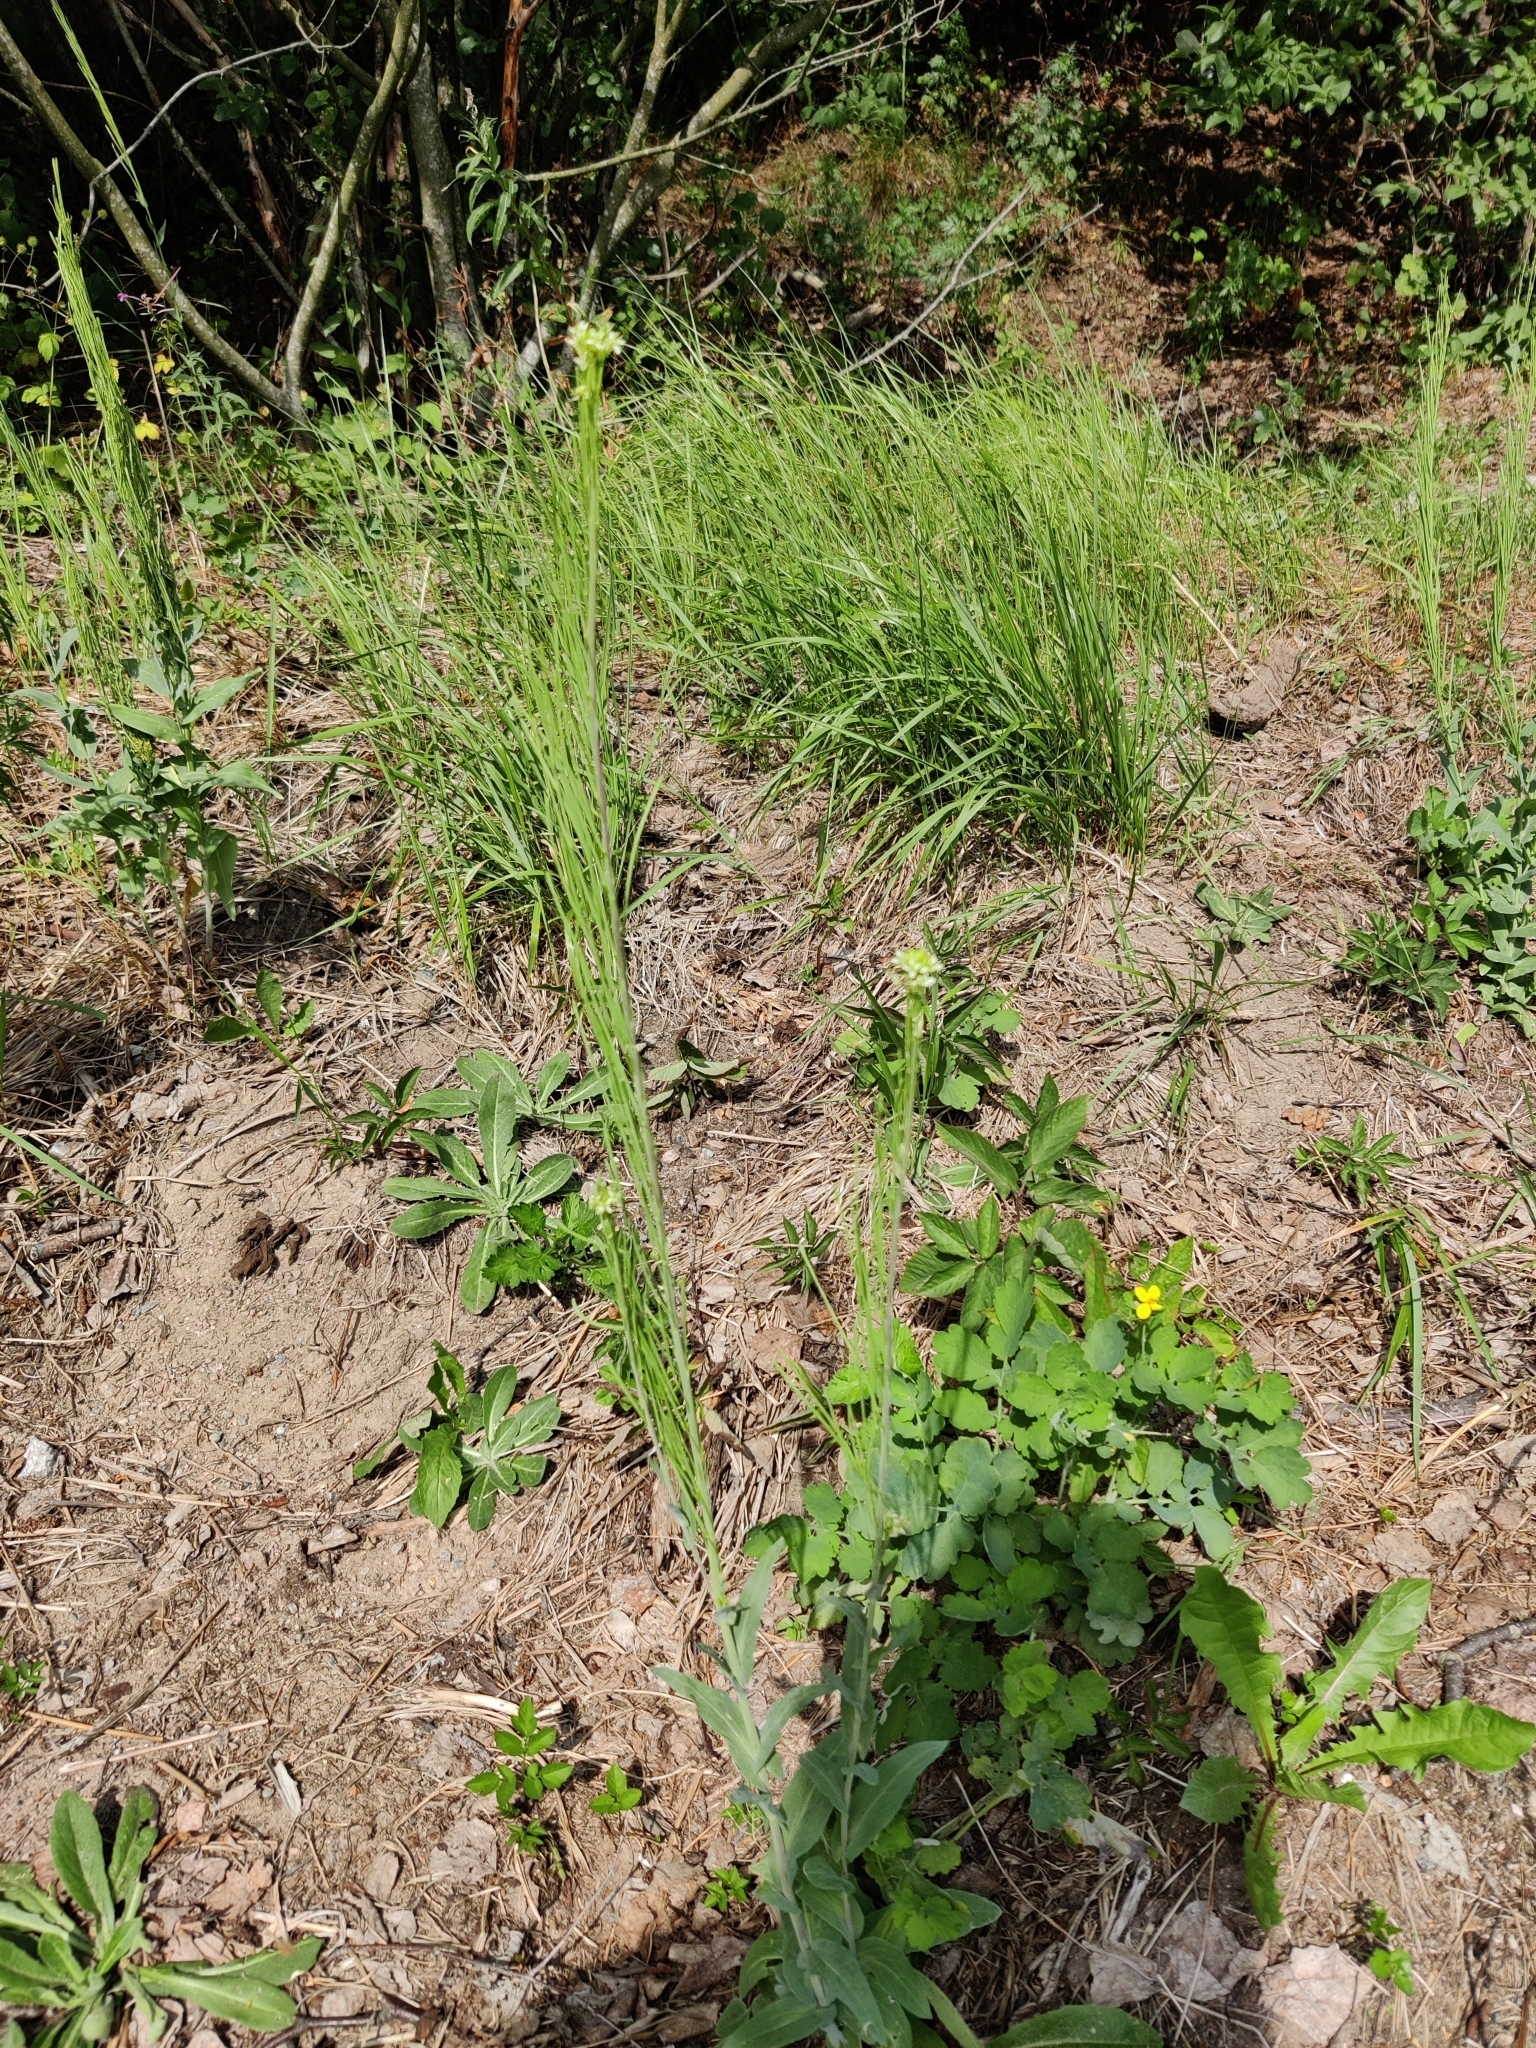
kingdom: Plantae
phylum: Tracheophyta
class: Magnoliopsida
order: Brassicales
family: Brassicaceae
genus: Turritis
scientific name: Turritis glabra
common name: Tower rockcress
